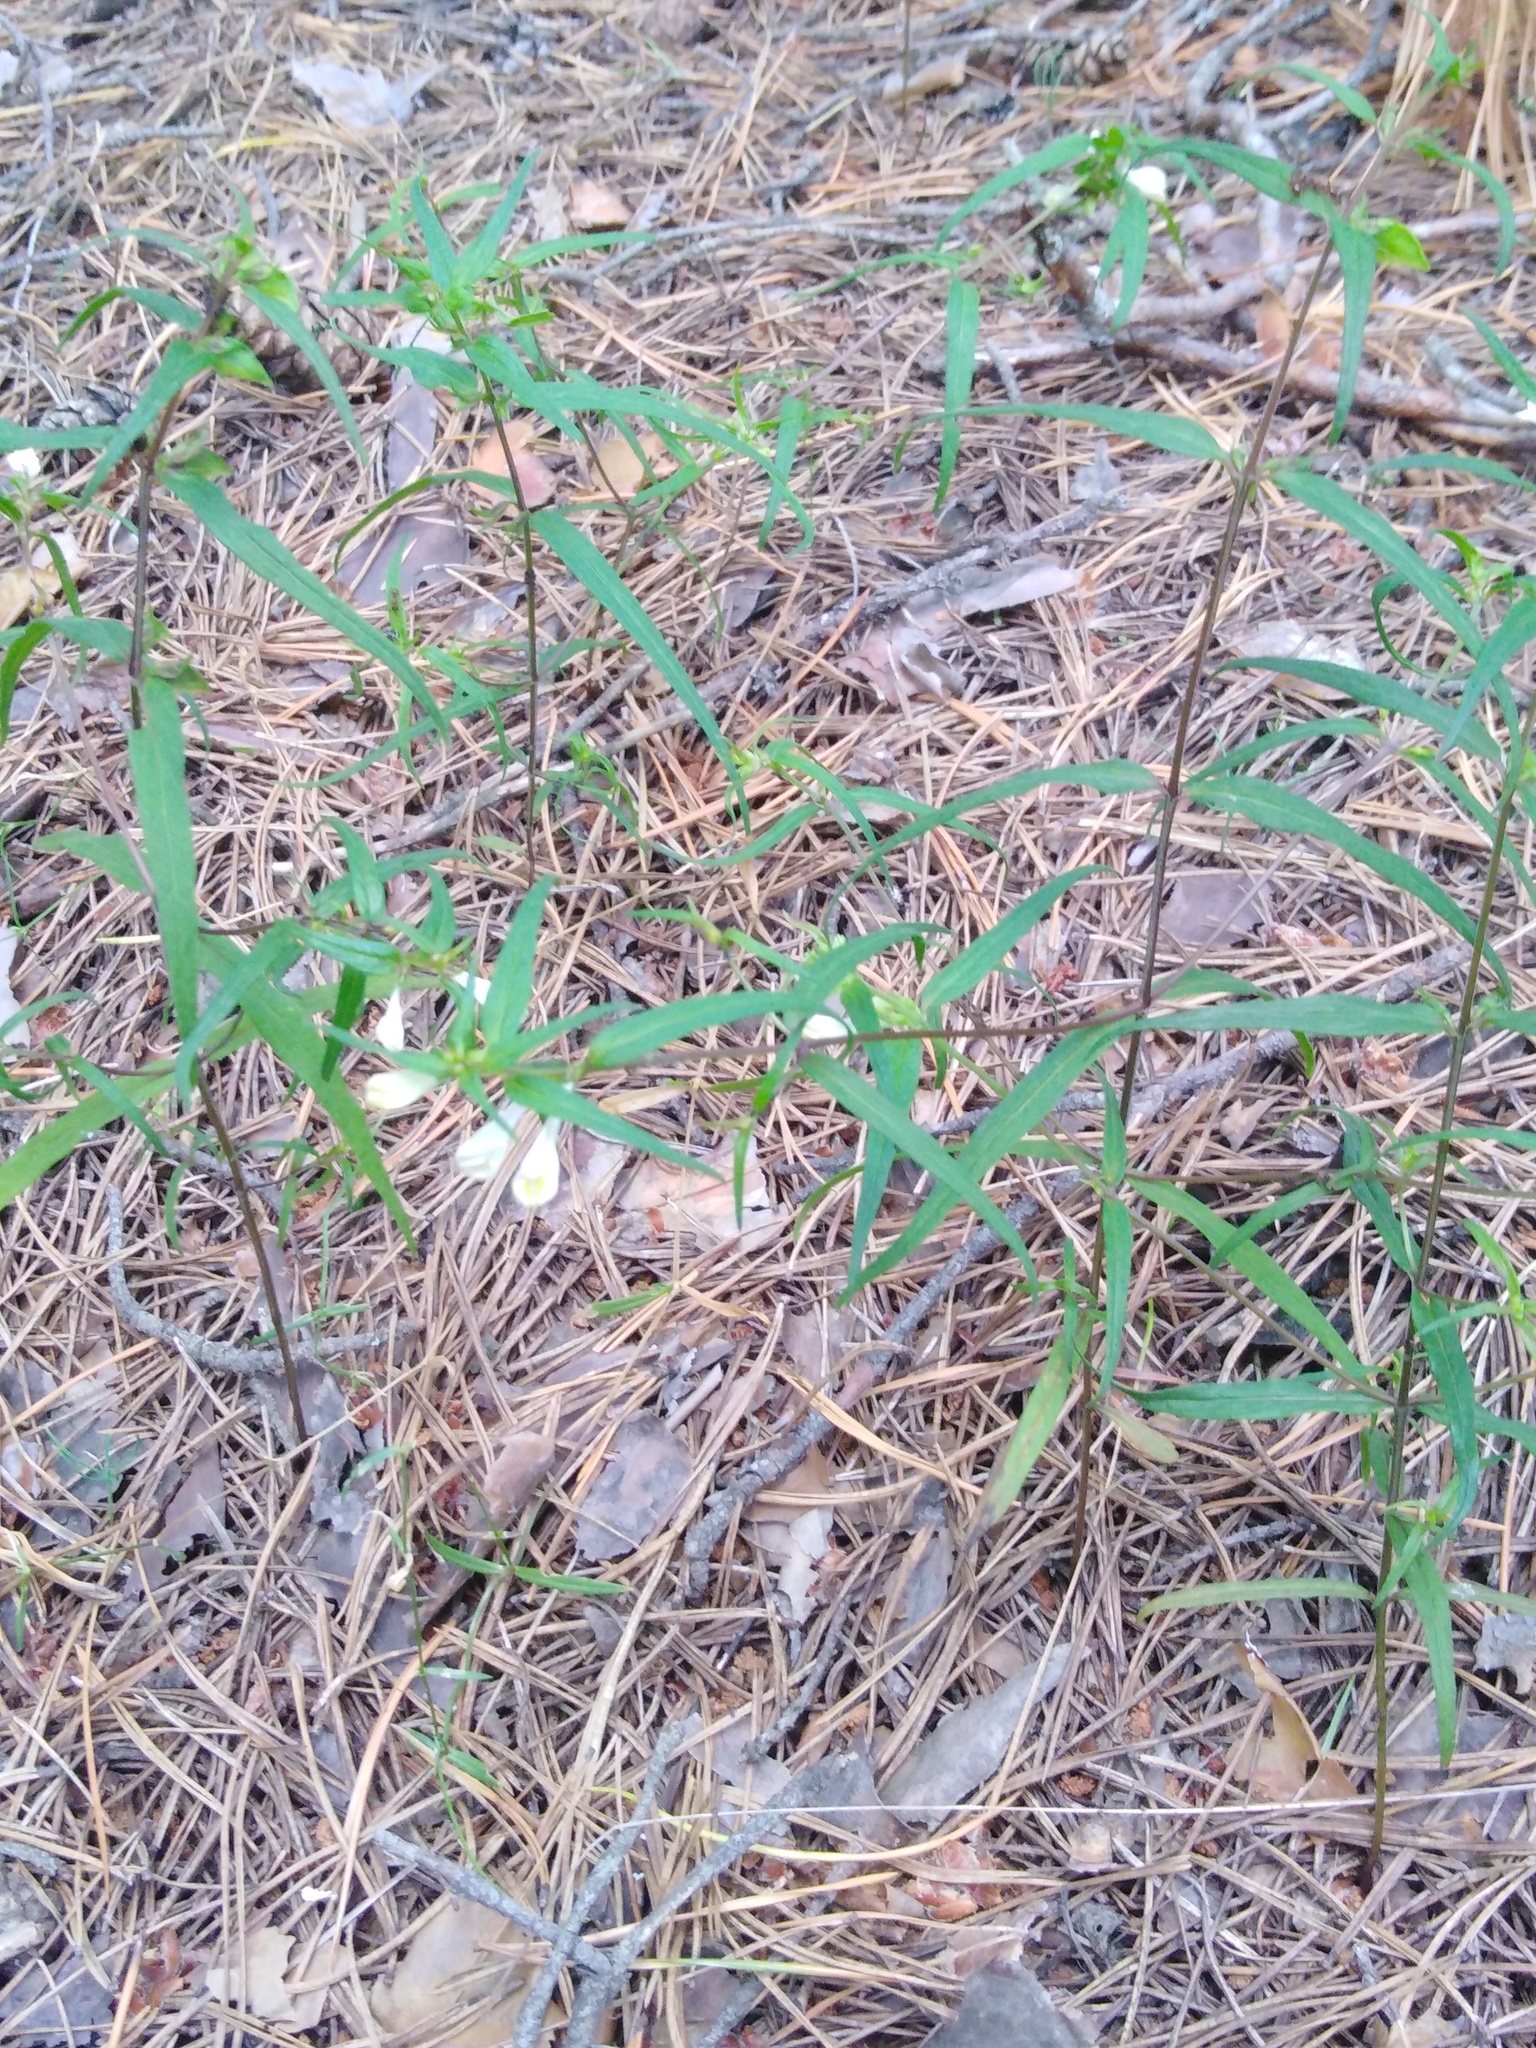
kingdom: Plantae
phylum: Tracheophyta
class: Magnoliopsida
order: Lamiales
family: Orobanchaceae
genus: Melampyrum
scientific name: Melampyrum pratense
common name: Common cow-wheat
